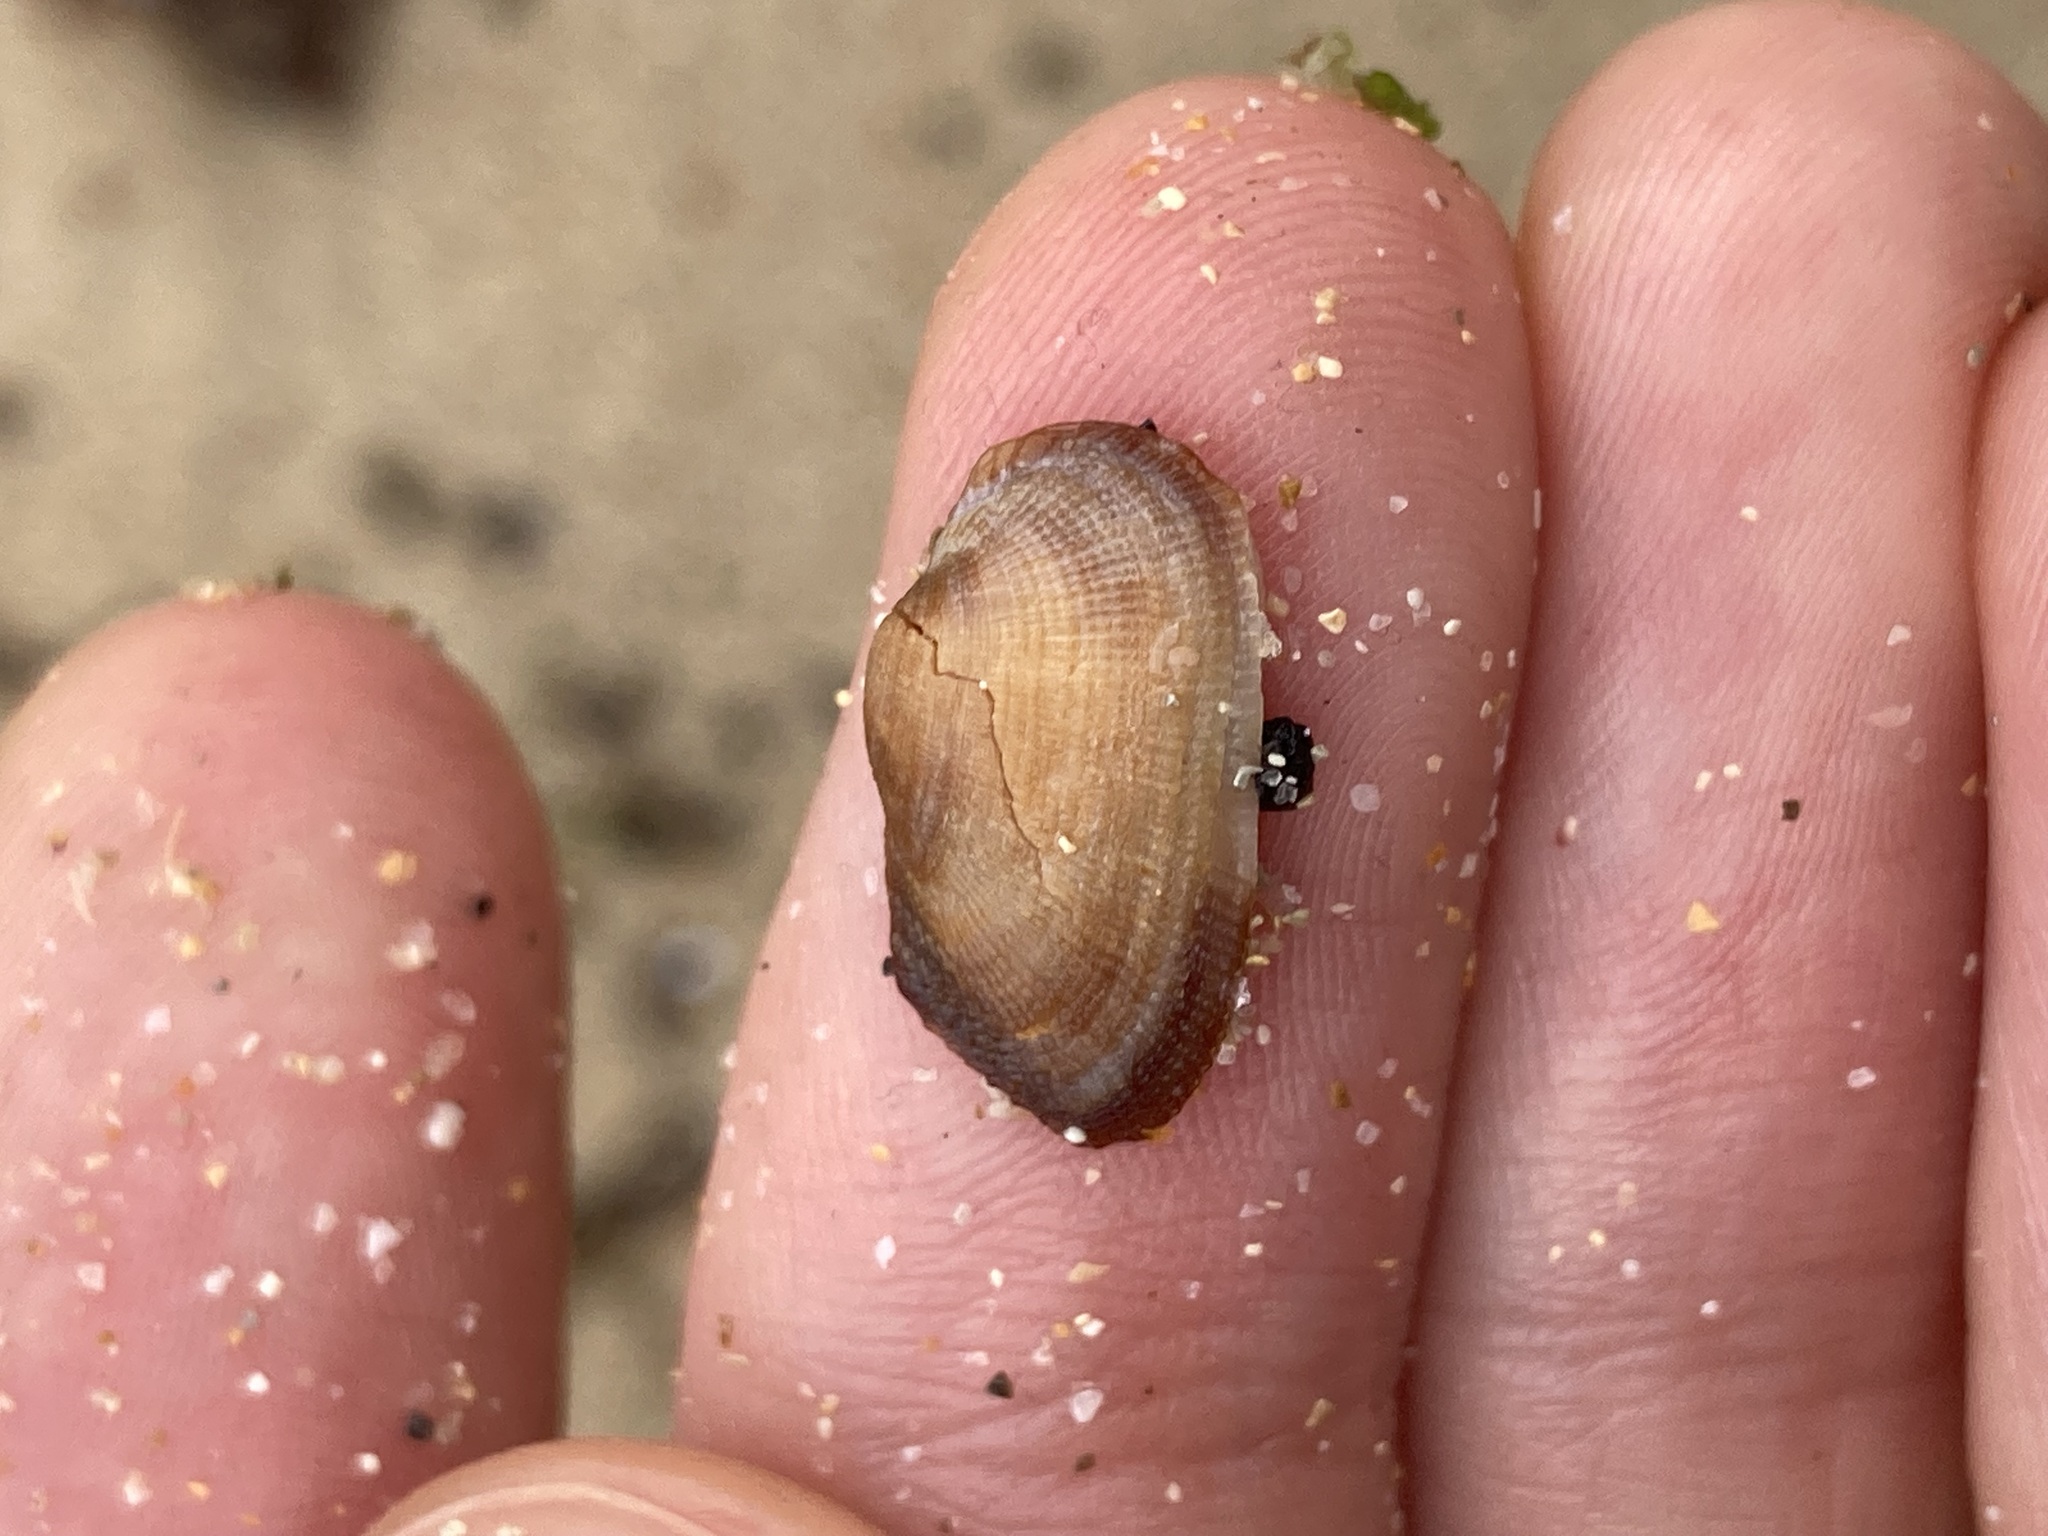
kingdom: Animalia
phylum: Mollusca
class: Bivalvia
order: Arcida
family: Arcidae
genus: Barbatia
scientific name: Barbatia pistachia
